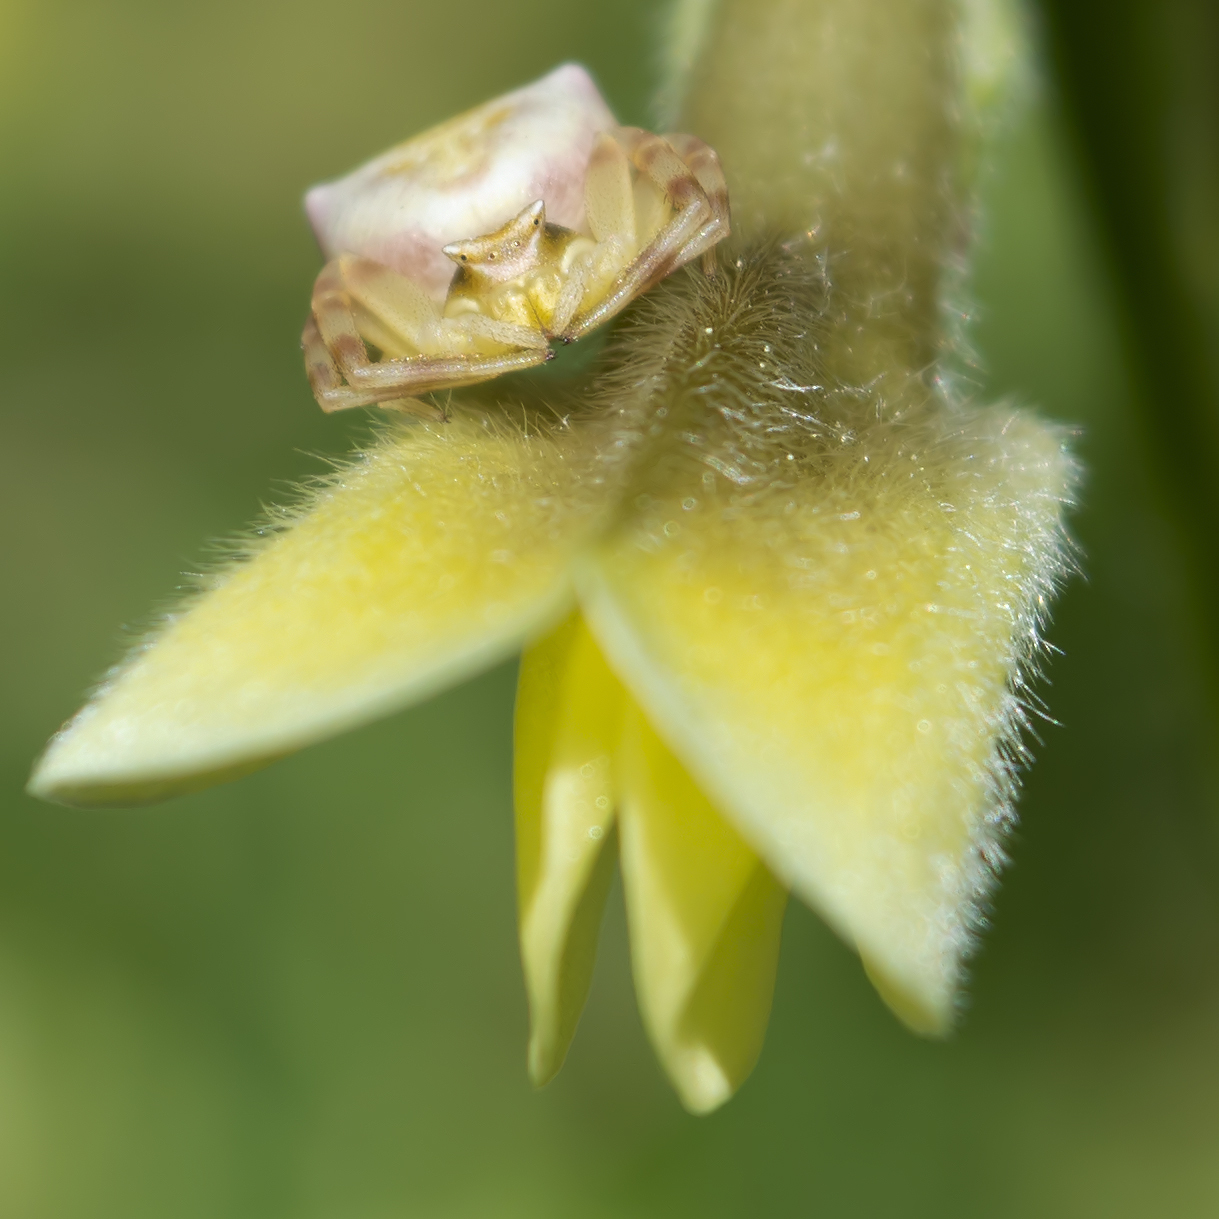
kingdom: Animalia
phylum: Arthropoda
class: Arachnida
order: Araneae
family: Thomisidae
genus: Thomisus
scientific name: Thomisus onustus
